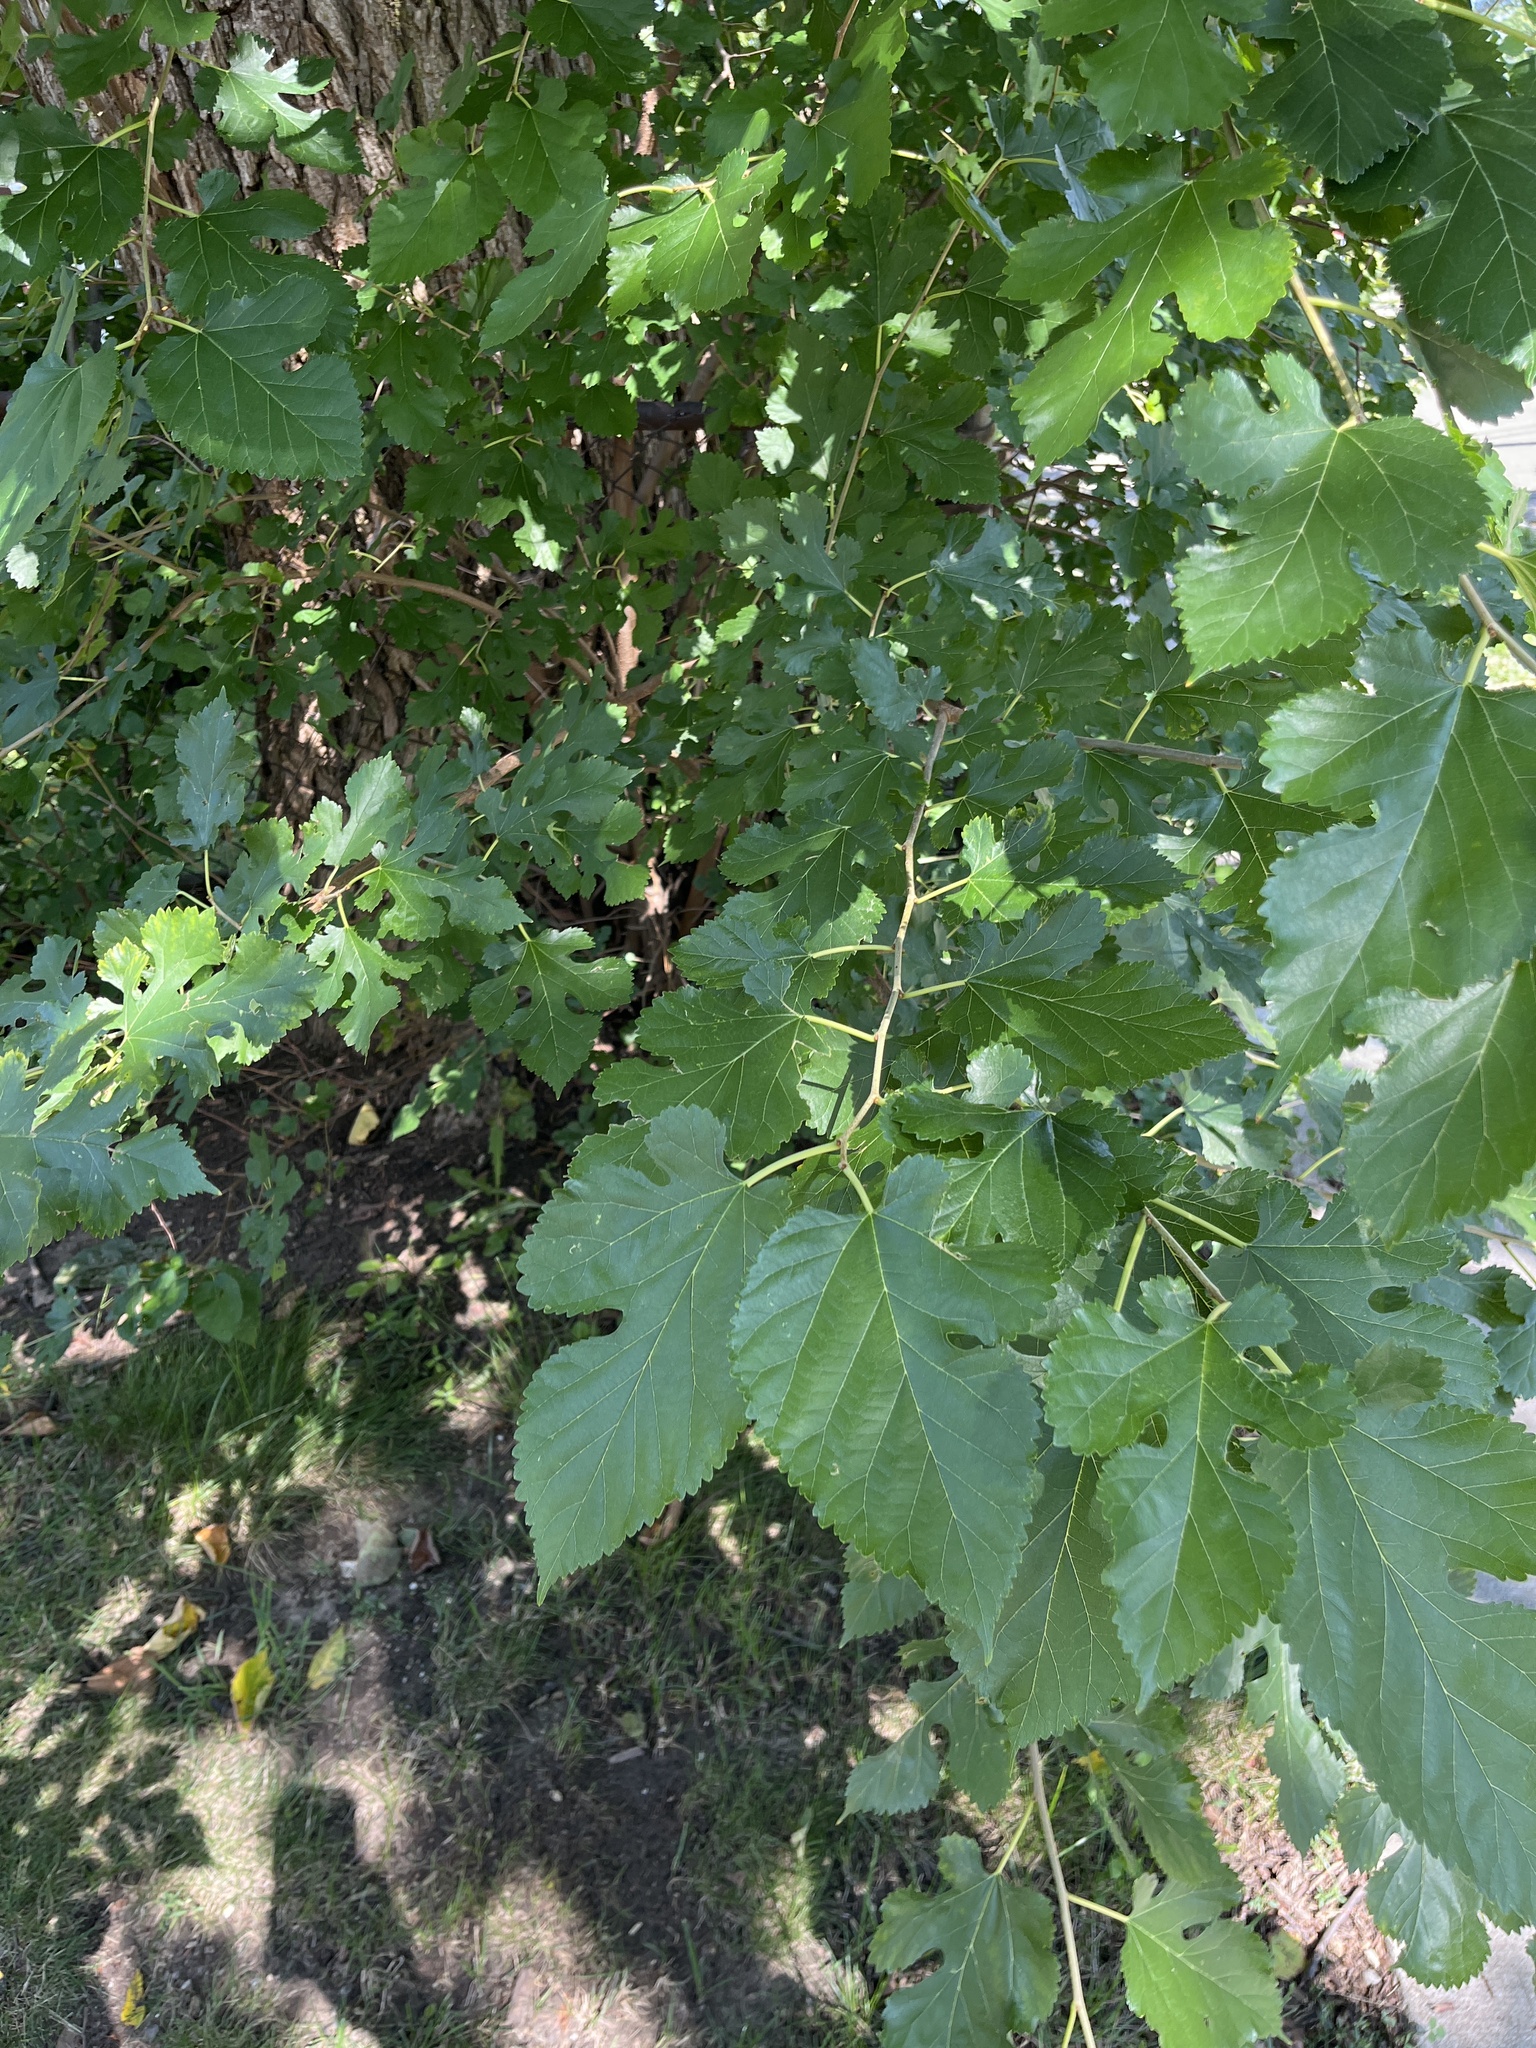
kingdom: Plantae
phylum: Tracheophyta
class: Magnoliopsida
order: Rosales
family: Moraceae
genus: Morus
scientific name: Morus alba
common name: White mulberry
